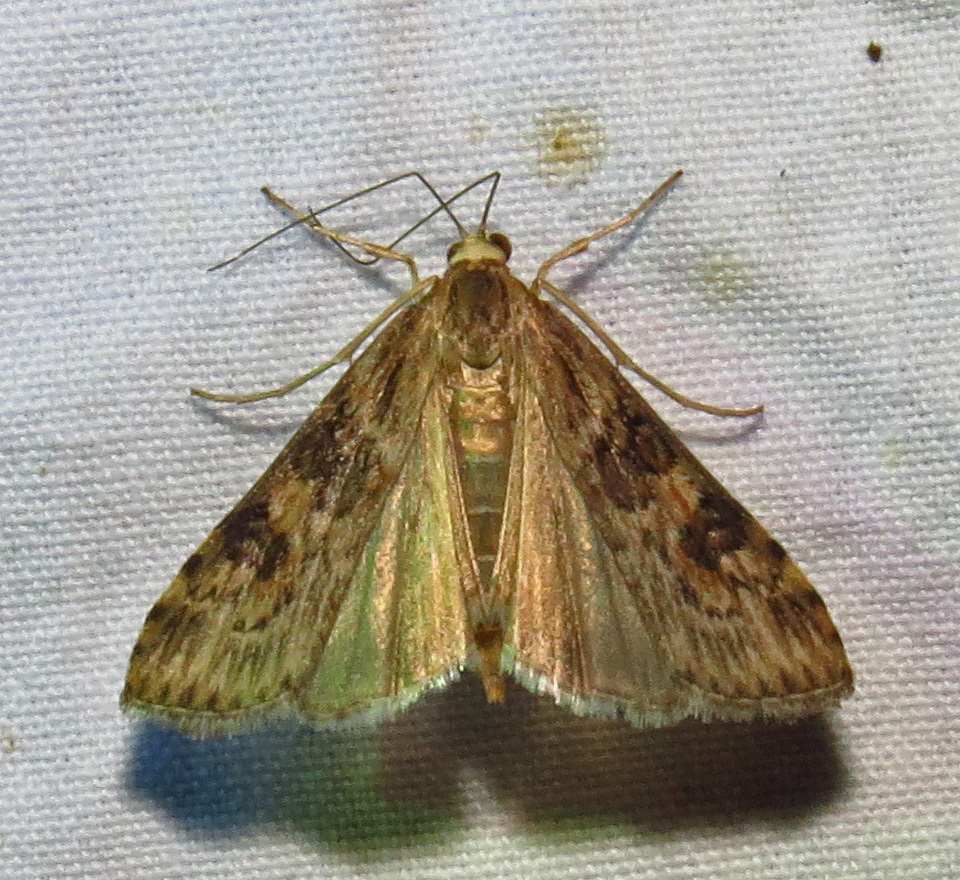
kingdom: Animalia
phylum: Arthropoda
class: Insecta
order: Lepidoptera
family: Crambidae
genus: Nomophila
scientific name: Nomophila nearctica
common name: American rush veneer
